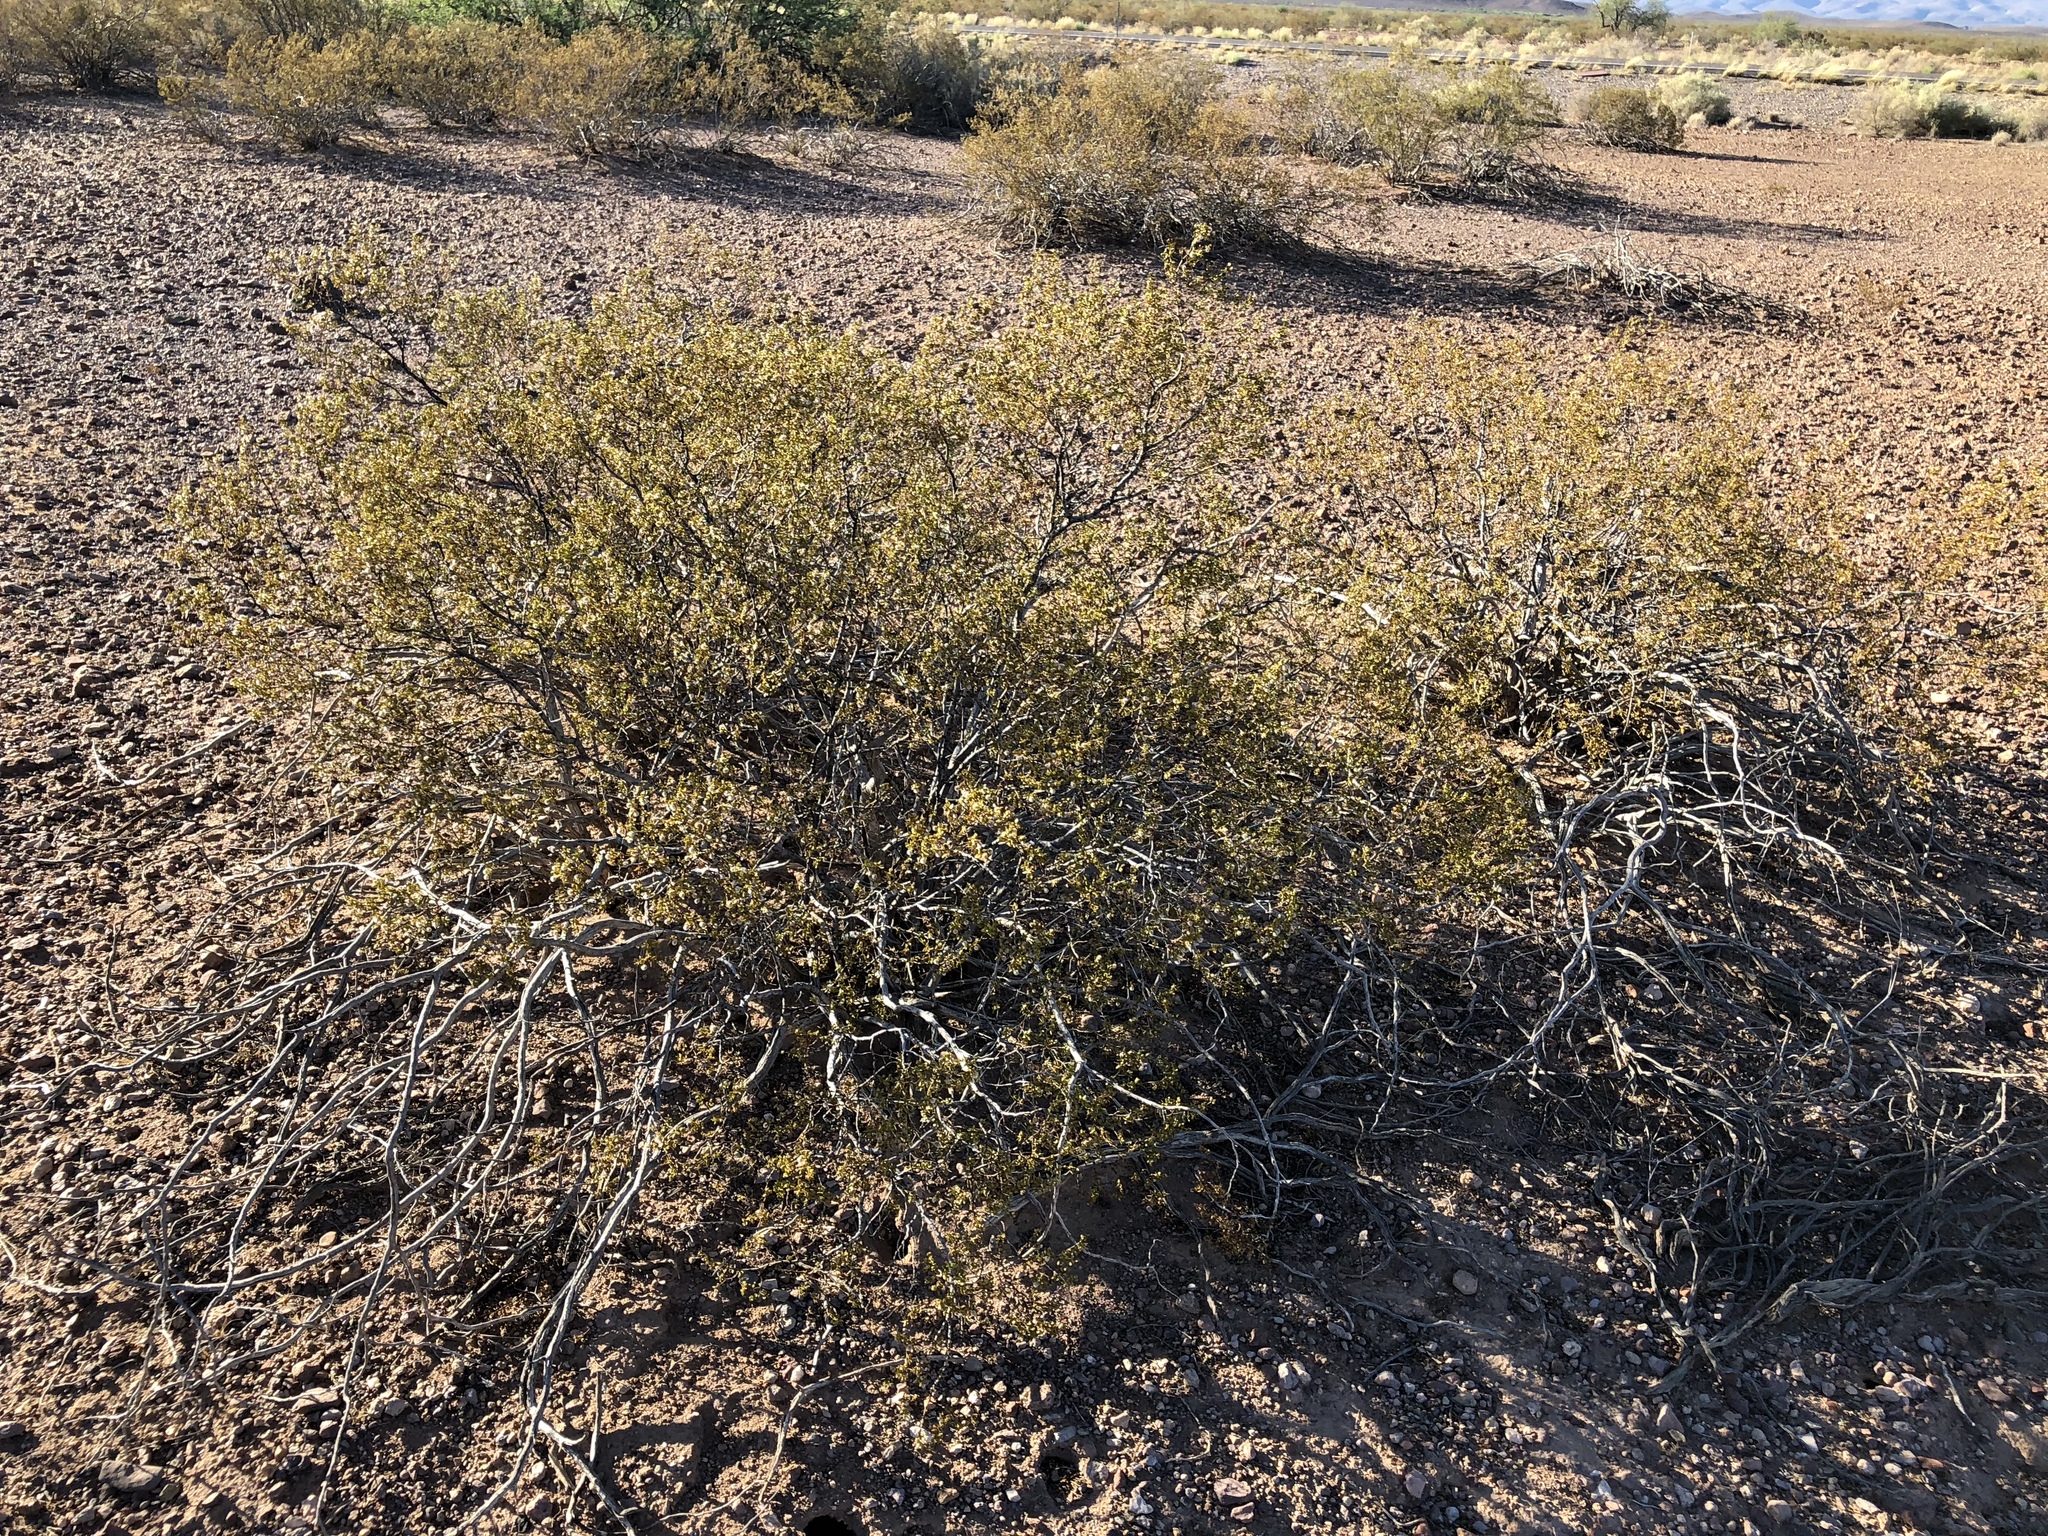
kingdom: Plantae
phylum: Tracheophyta
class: Magnoliopsida
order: Zygophyllales
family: Zygophyllaceae
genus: Larrea
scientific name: Larrea tridentata
